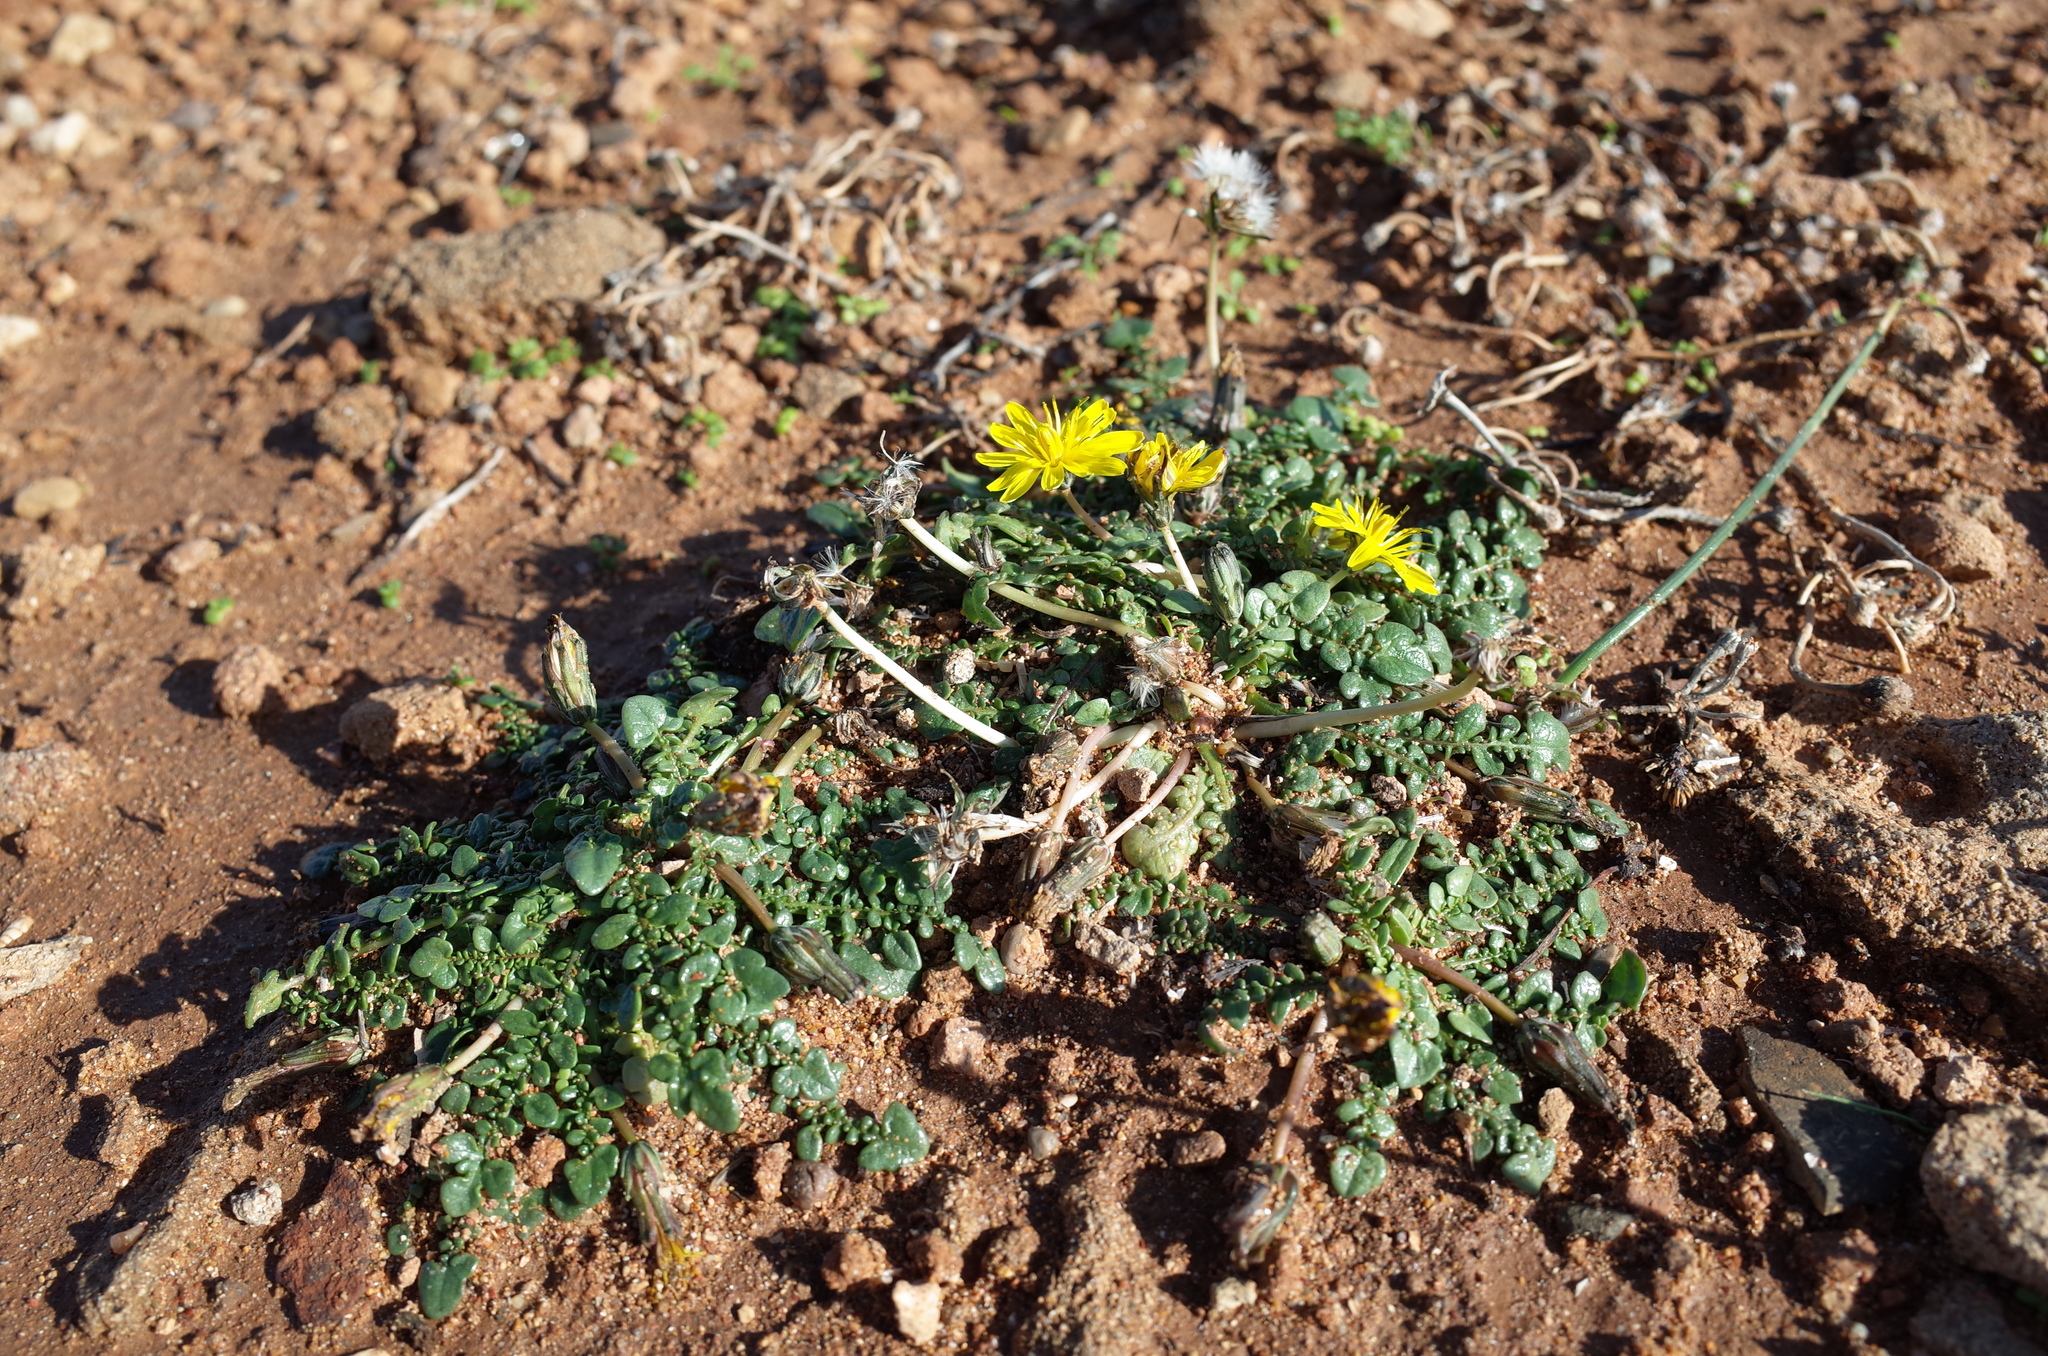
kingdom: Plantae
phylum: Tracheophyta
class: Magnoliopsida
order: Asterales
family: Asteraceae
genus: Taraxacum
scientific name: Taraxacum aphrogenes
